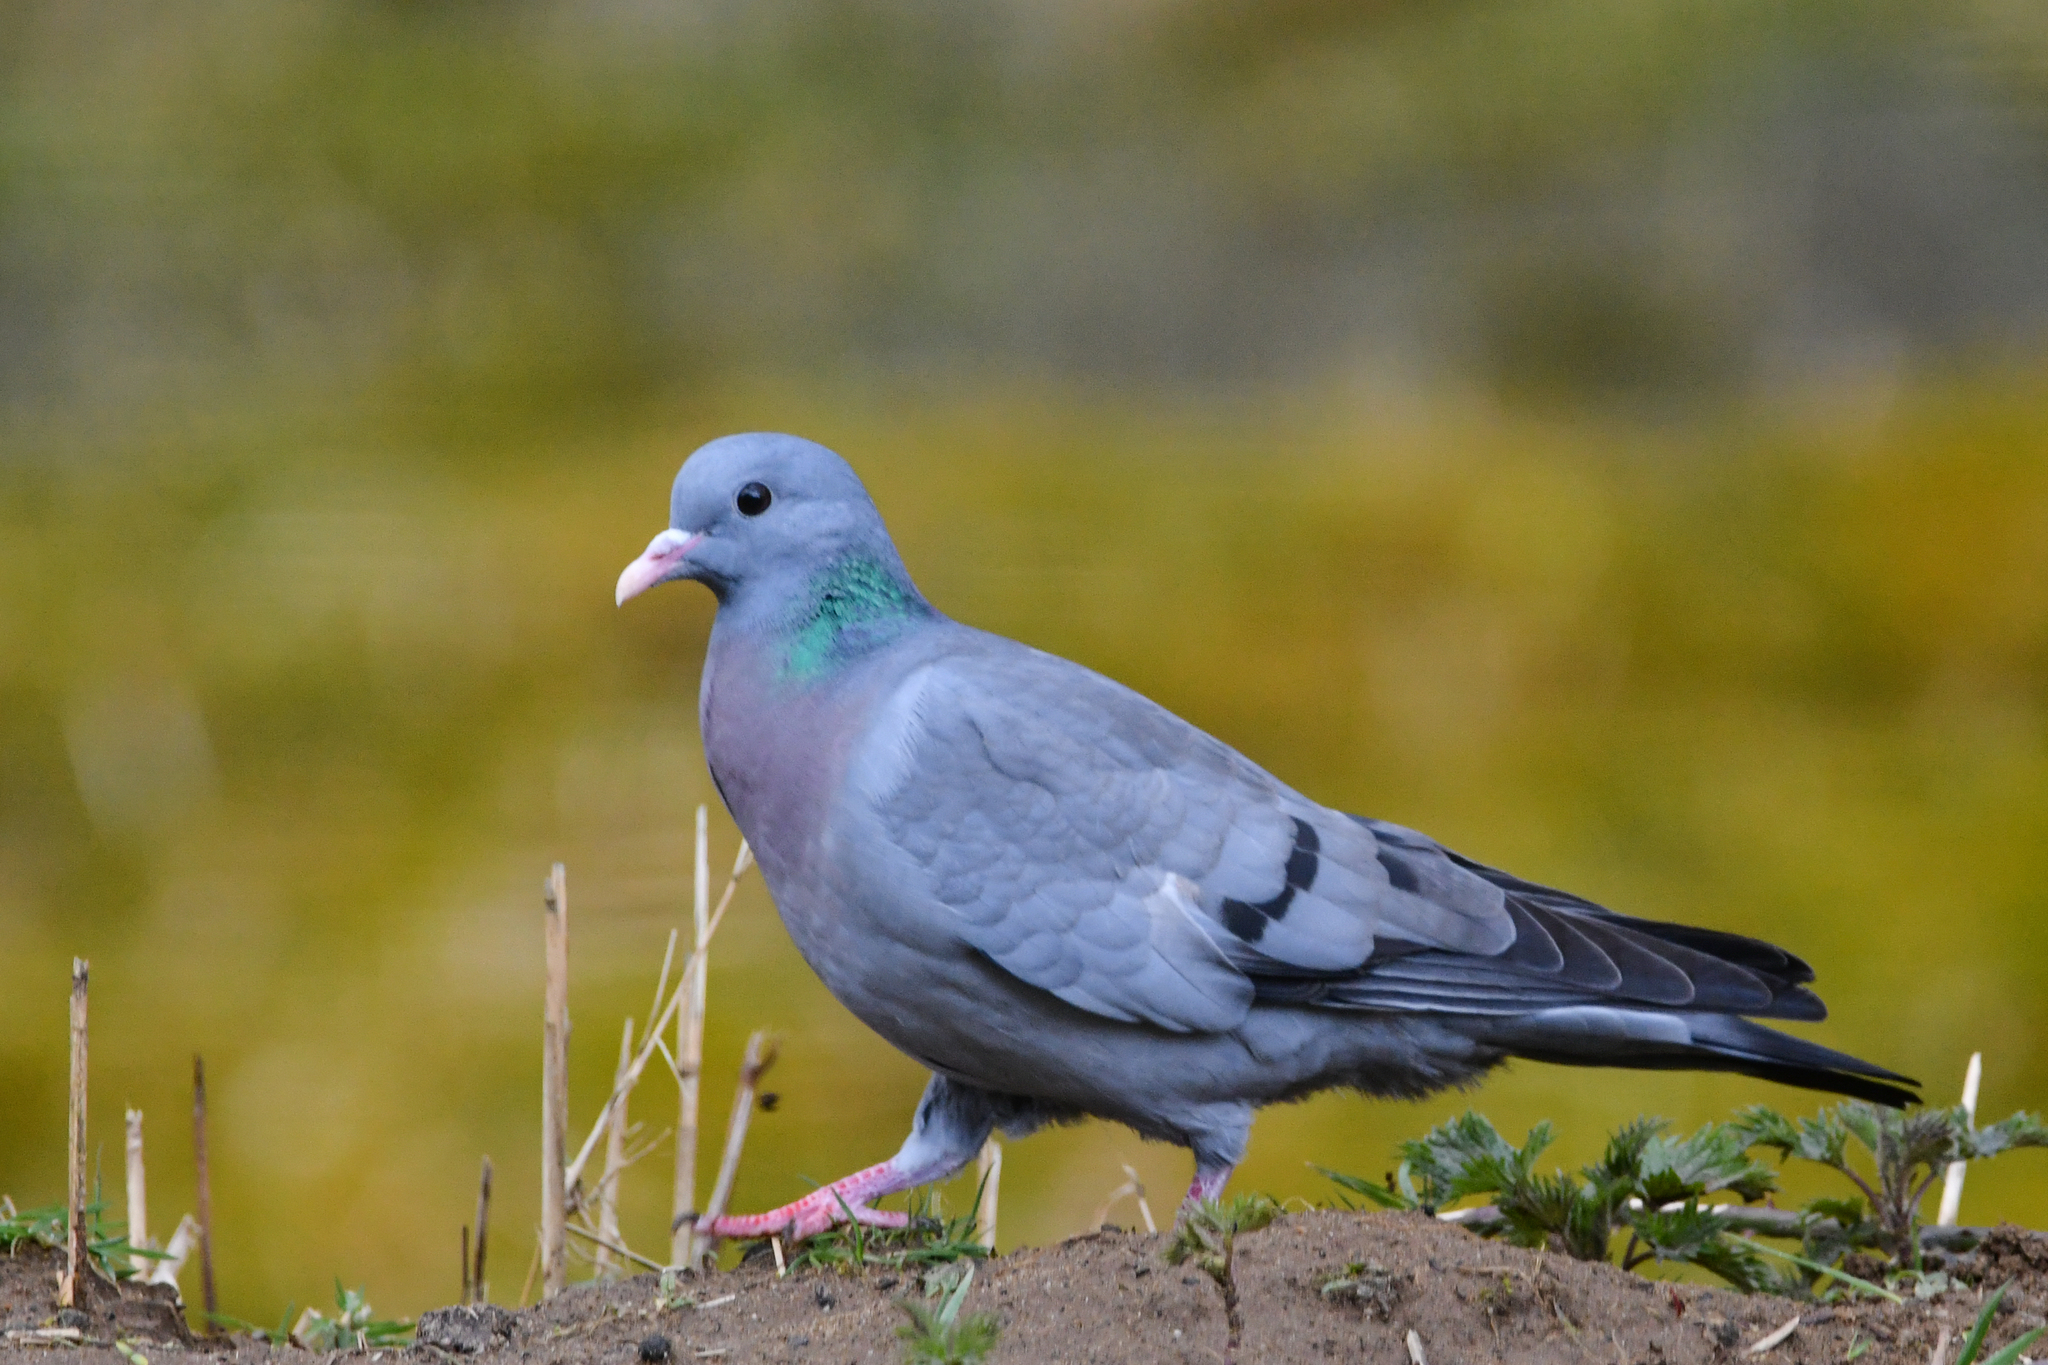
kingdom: Animalia
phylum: Chordata
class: Aves
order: Columbiformes
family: Columbidae
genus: Columba
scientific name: Columba oenas
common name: Stock dove
